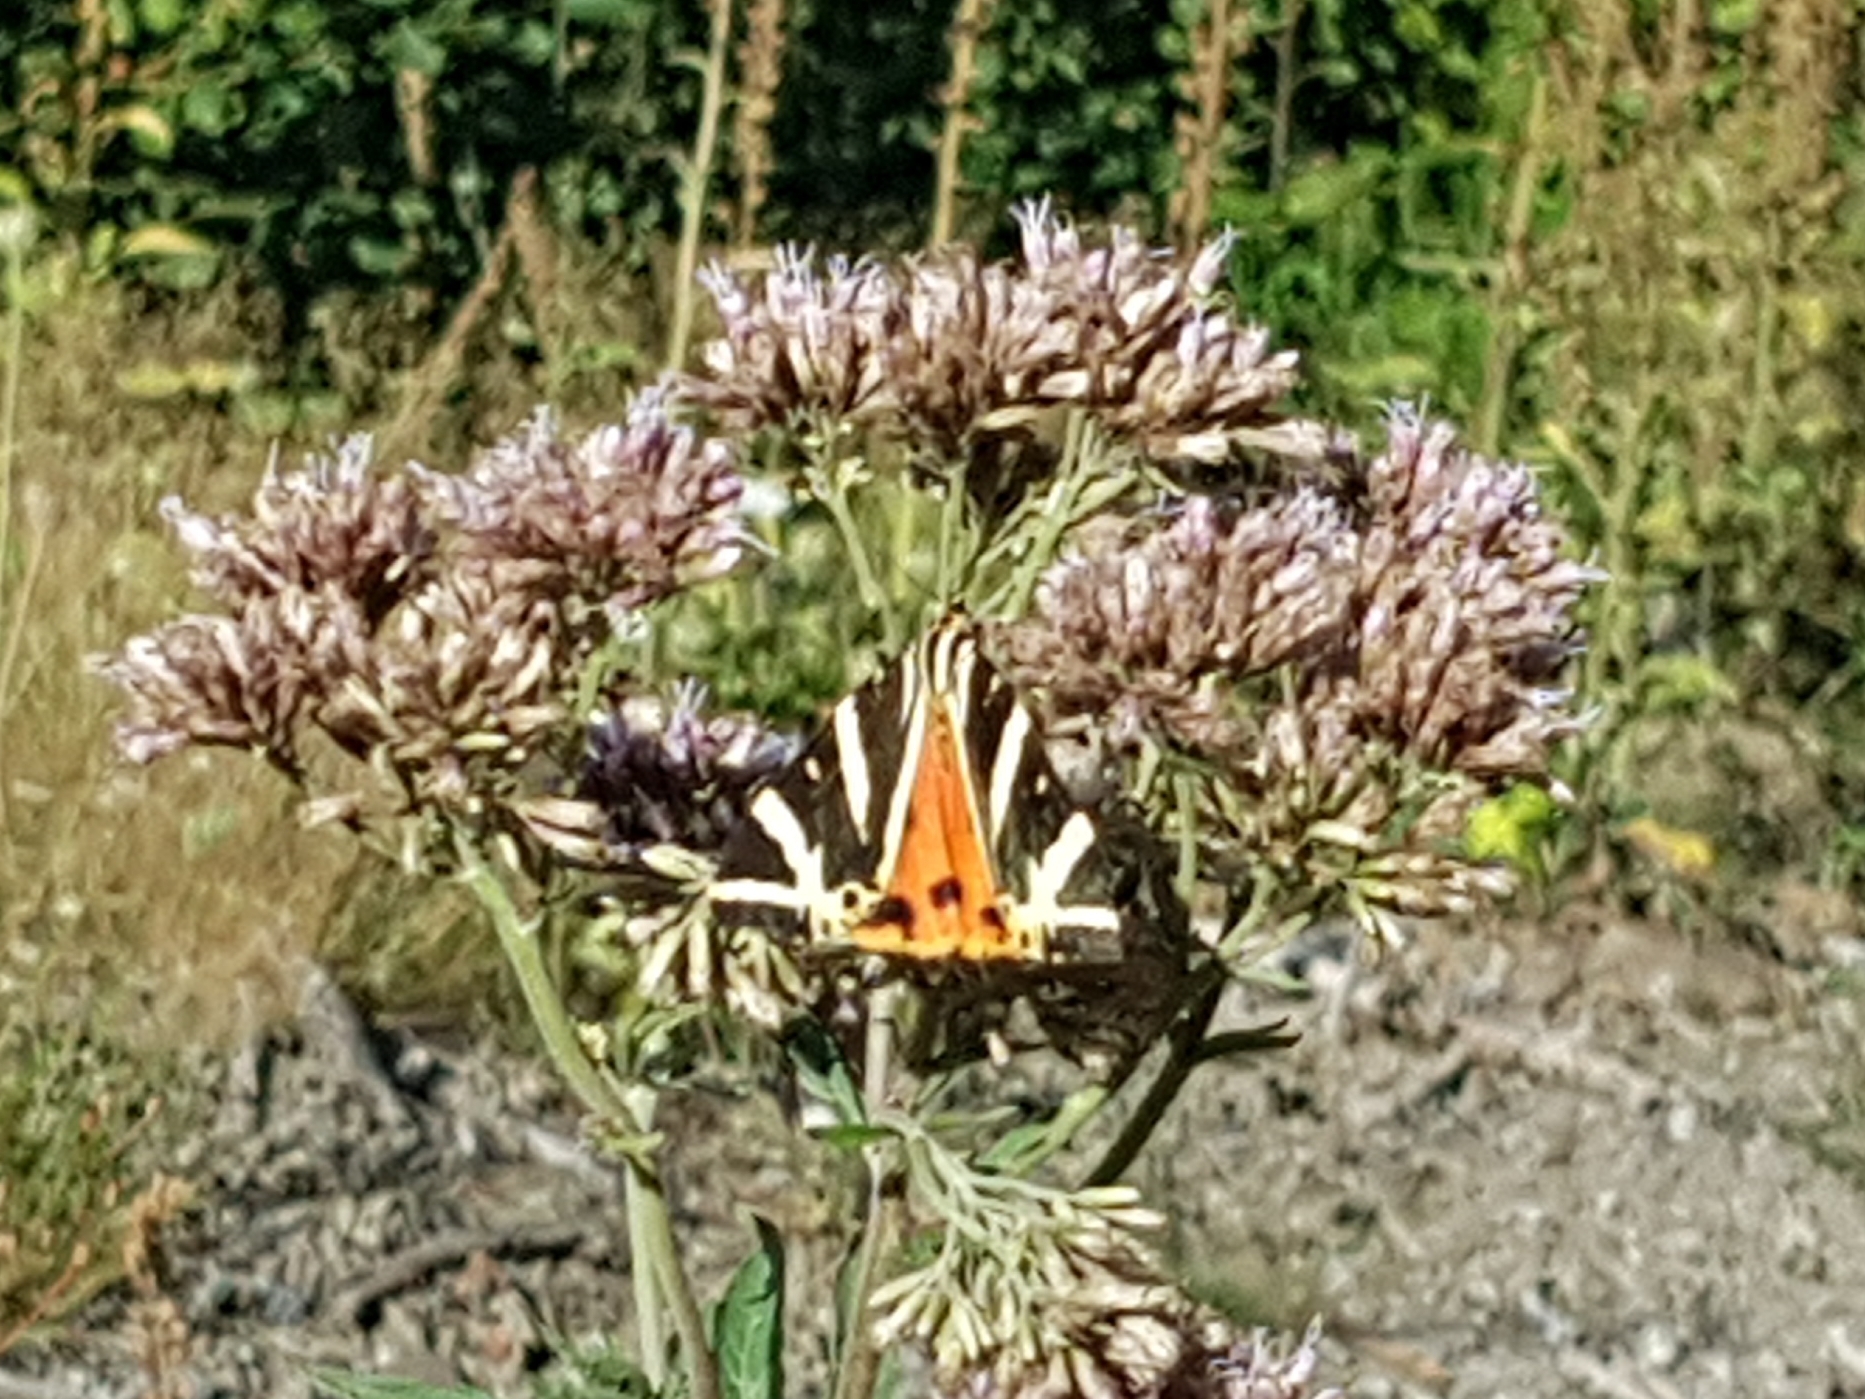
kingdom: Animalia
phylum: Arthropoda
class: Insecta
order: Lepidoptera
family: Erebidae
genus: Euplagia
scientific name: Euplagia quadripunctaria
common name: Jersey tiger
